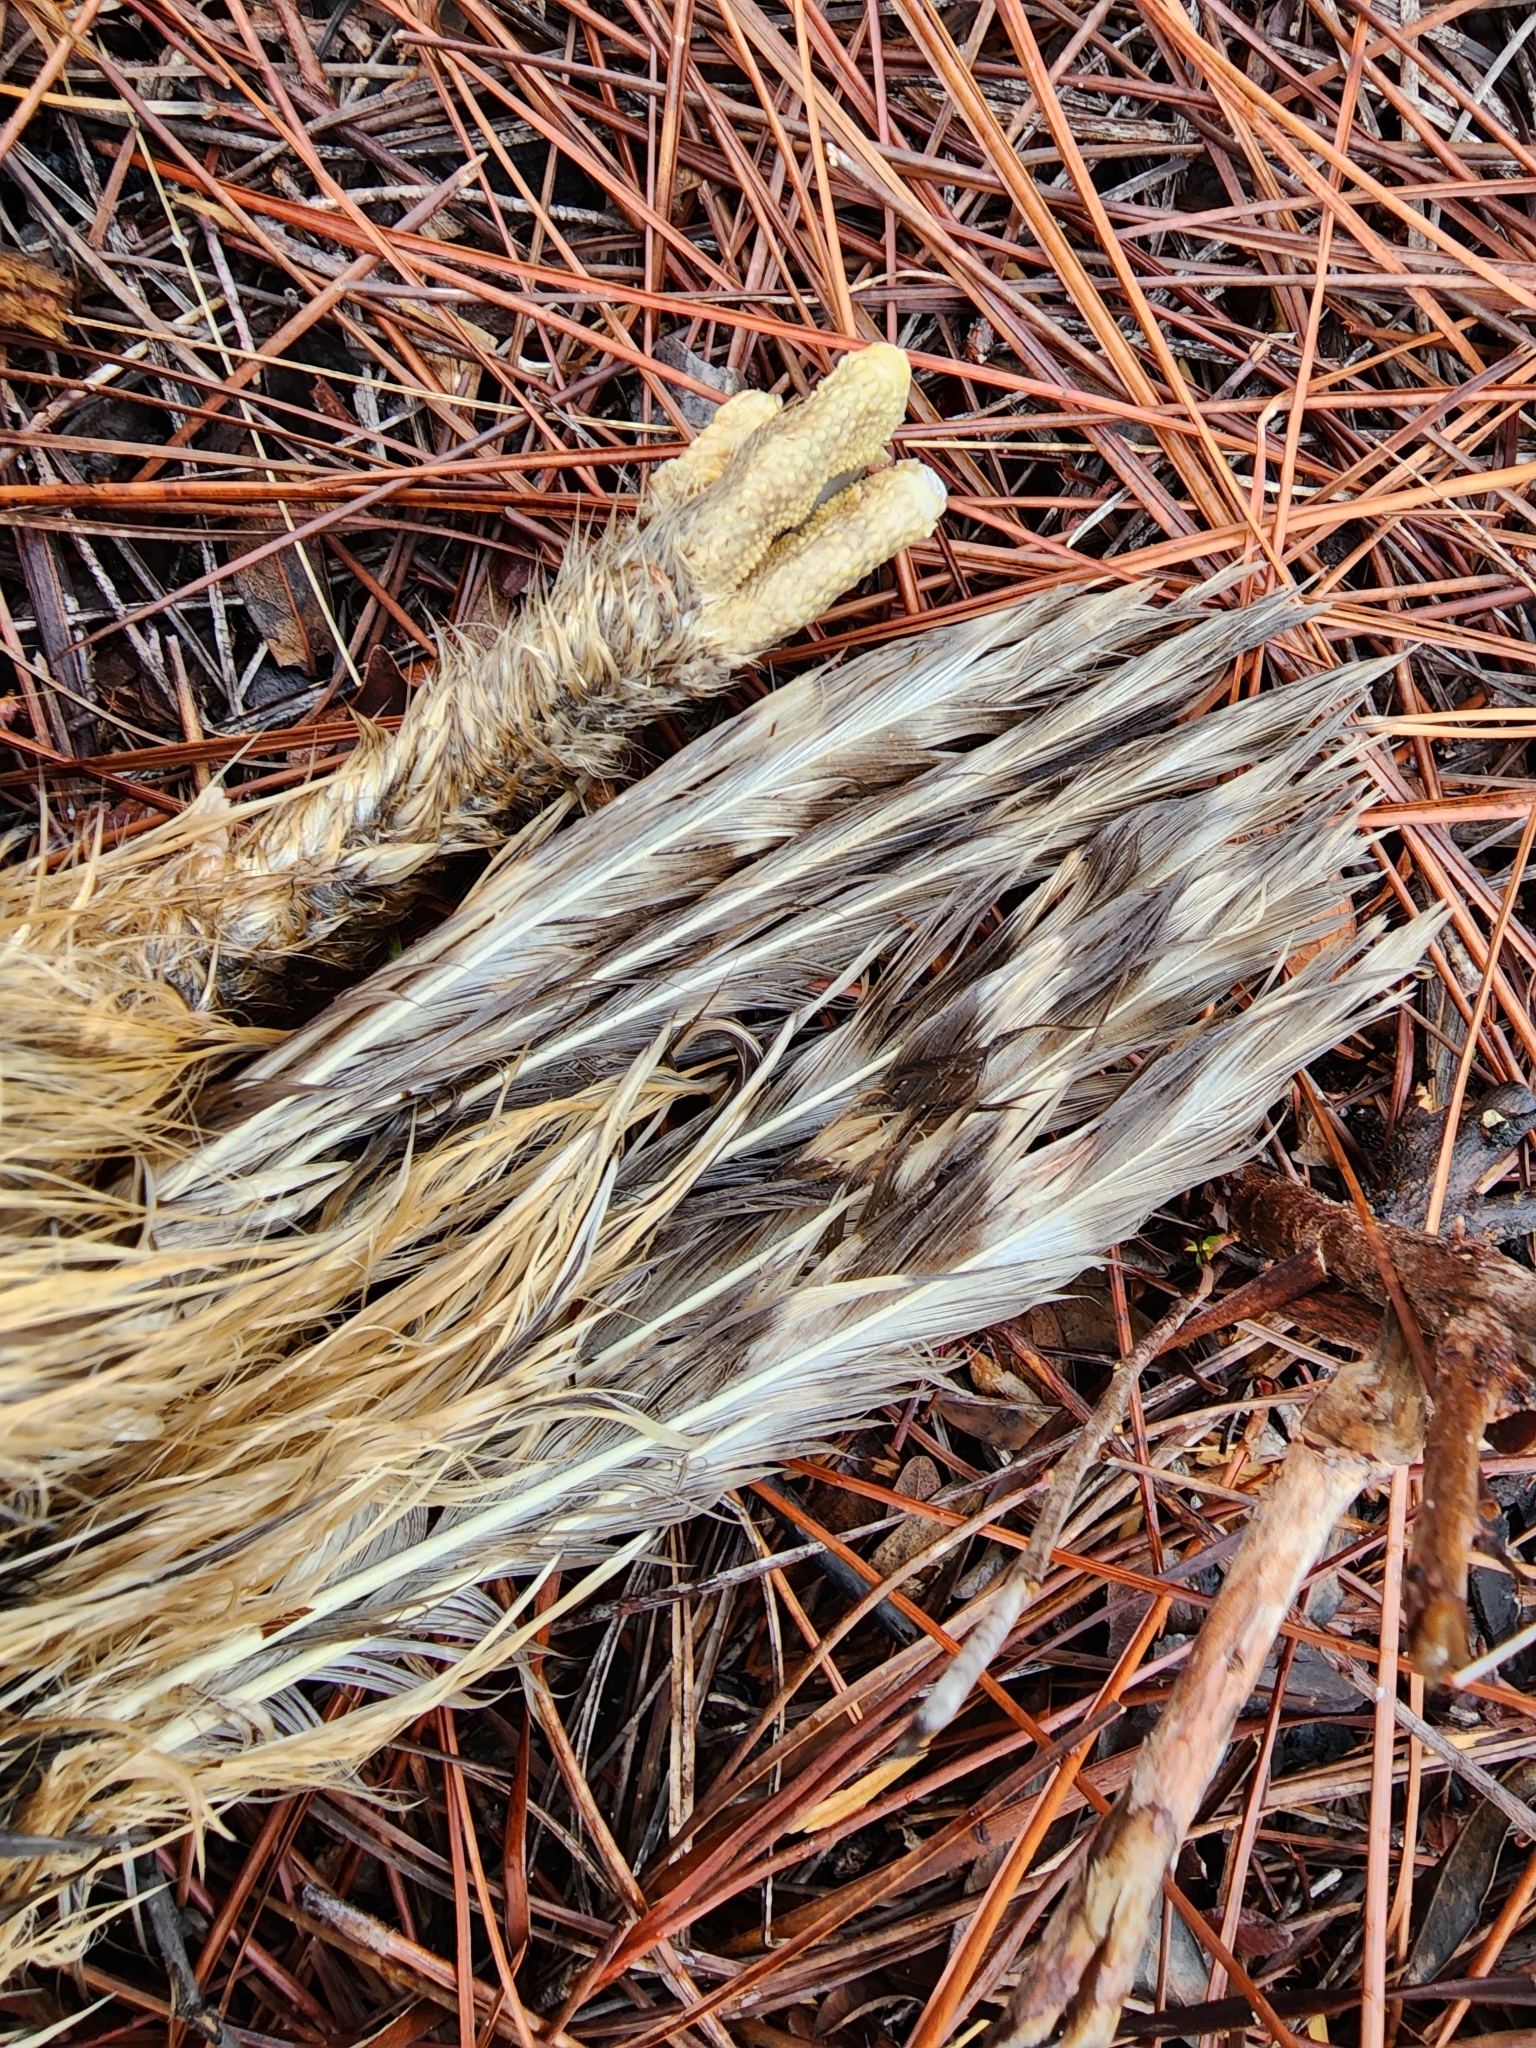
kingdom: Animalia
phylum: Chordata
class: Aves
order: Strigiformes
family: Strigidae
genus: Strix
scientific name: Strix varia
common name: Barred owl
